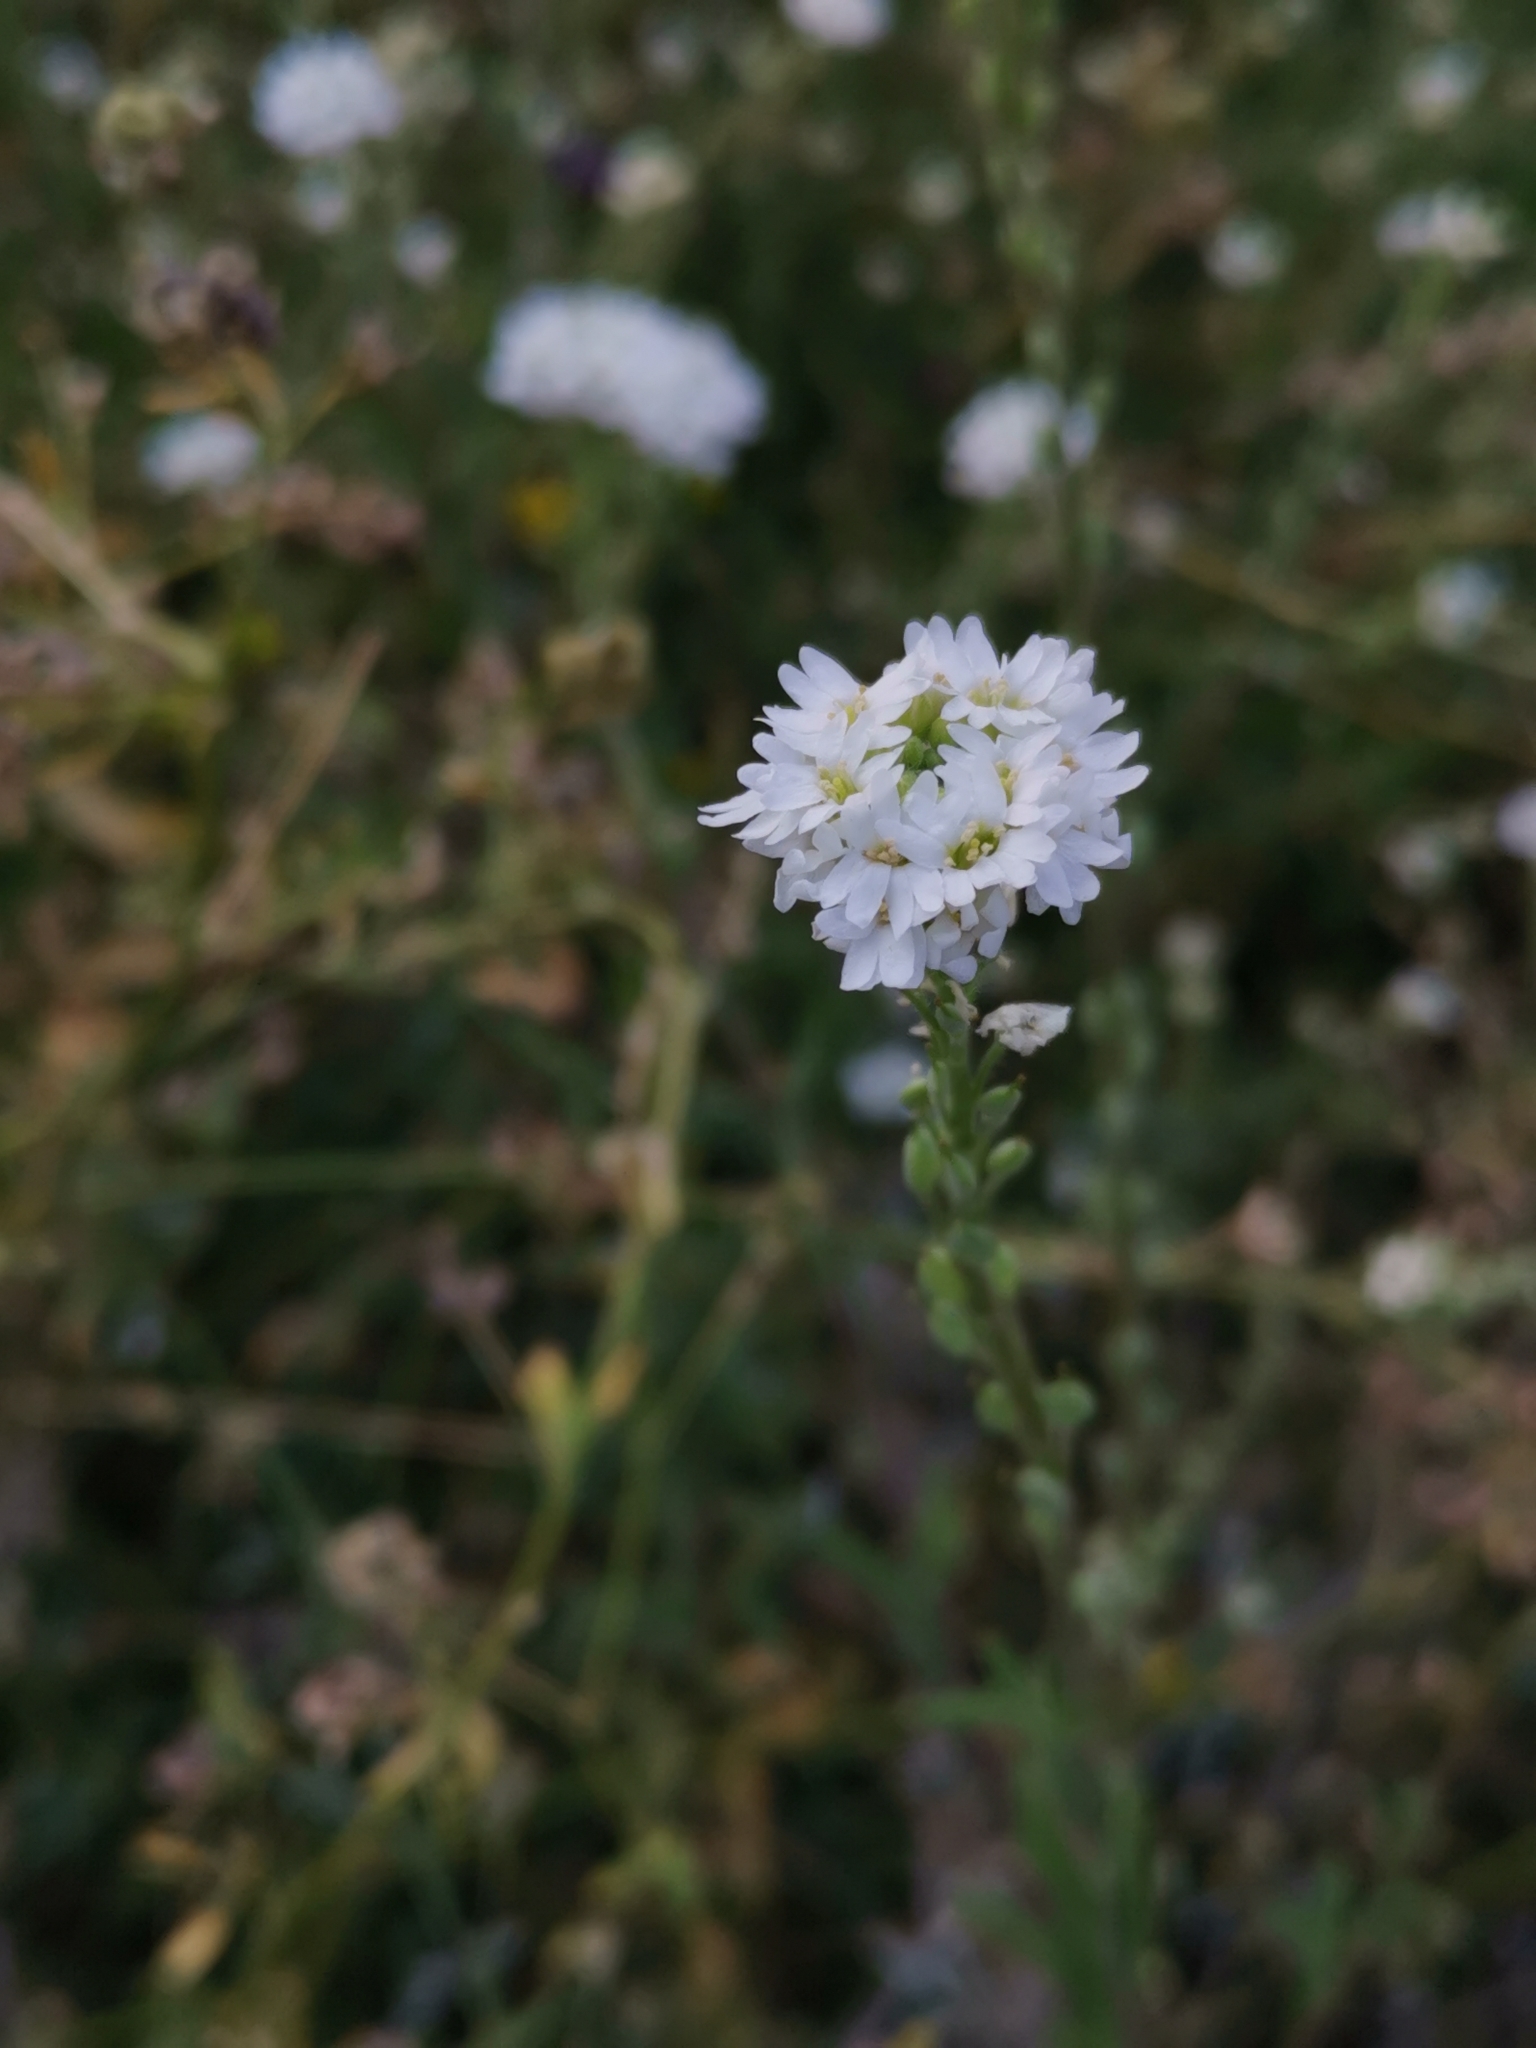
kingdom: Plantae
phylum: Tracheophyta
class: Magnoliopsida
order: Brassicales
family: Brassicaceae
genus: Berteroa
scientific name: Berteroa incana
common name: Hoary alison
